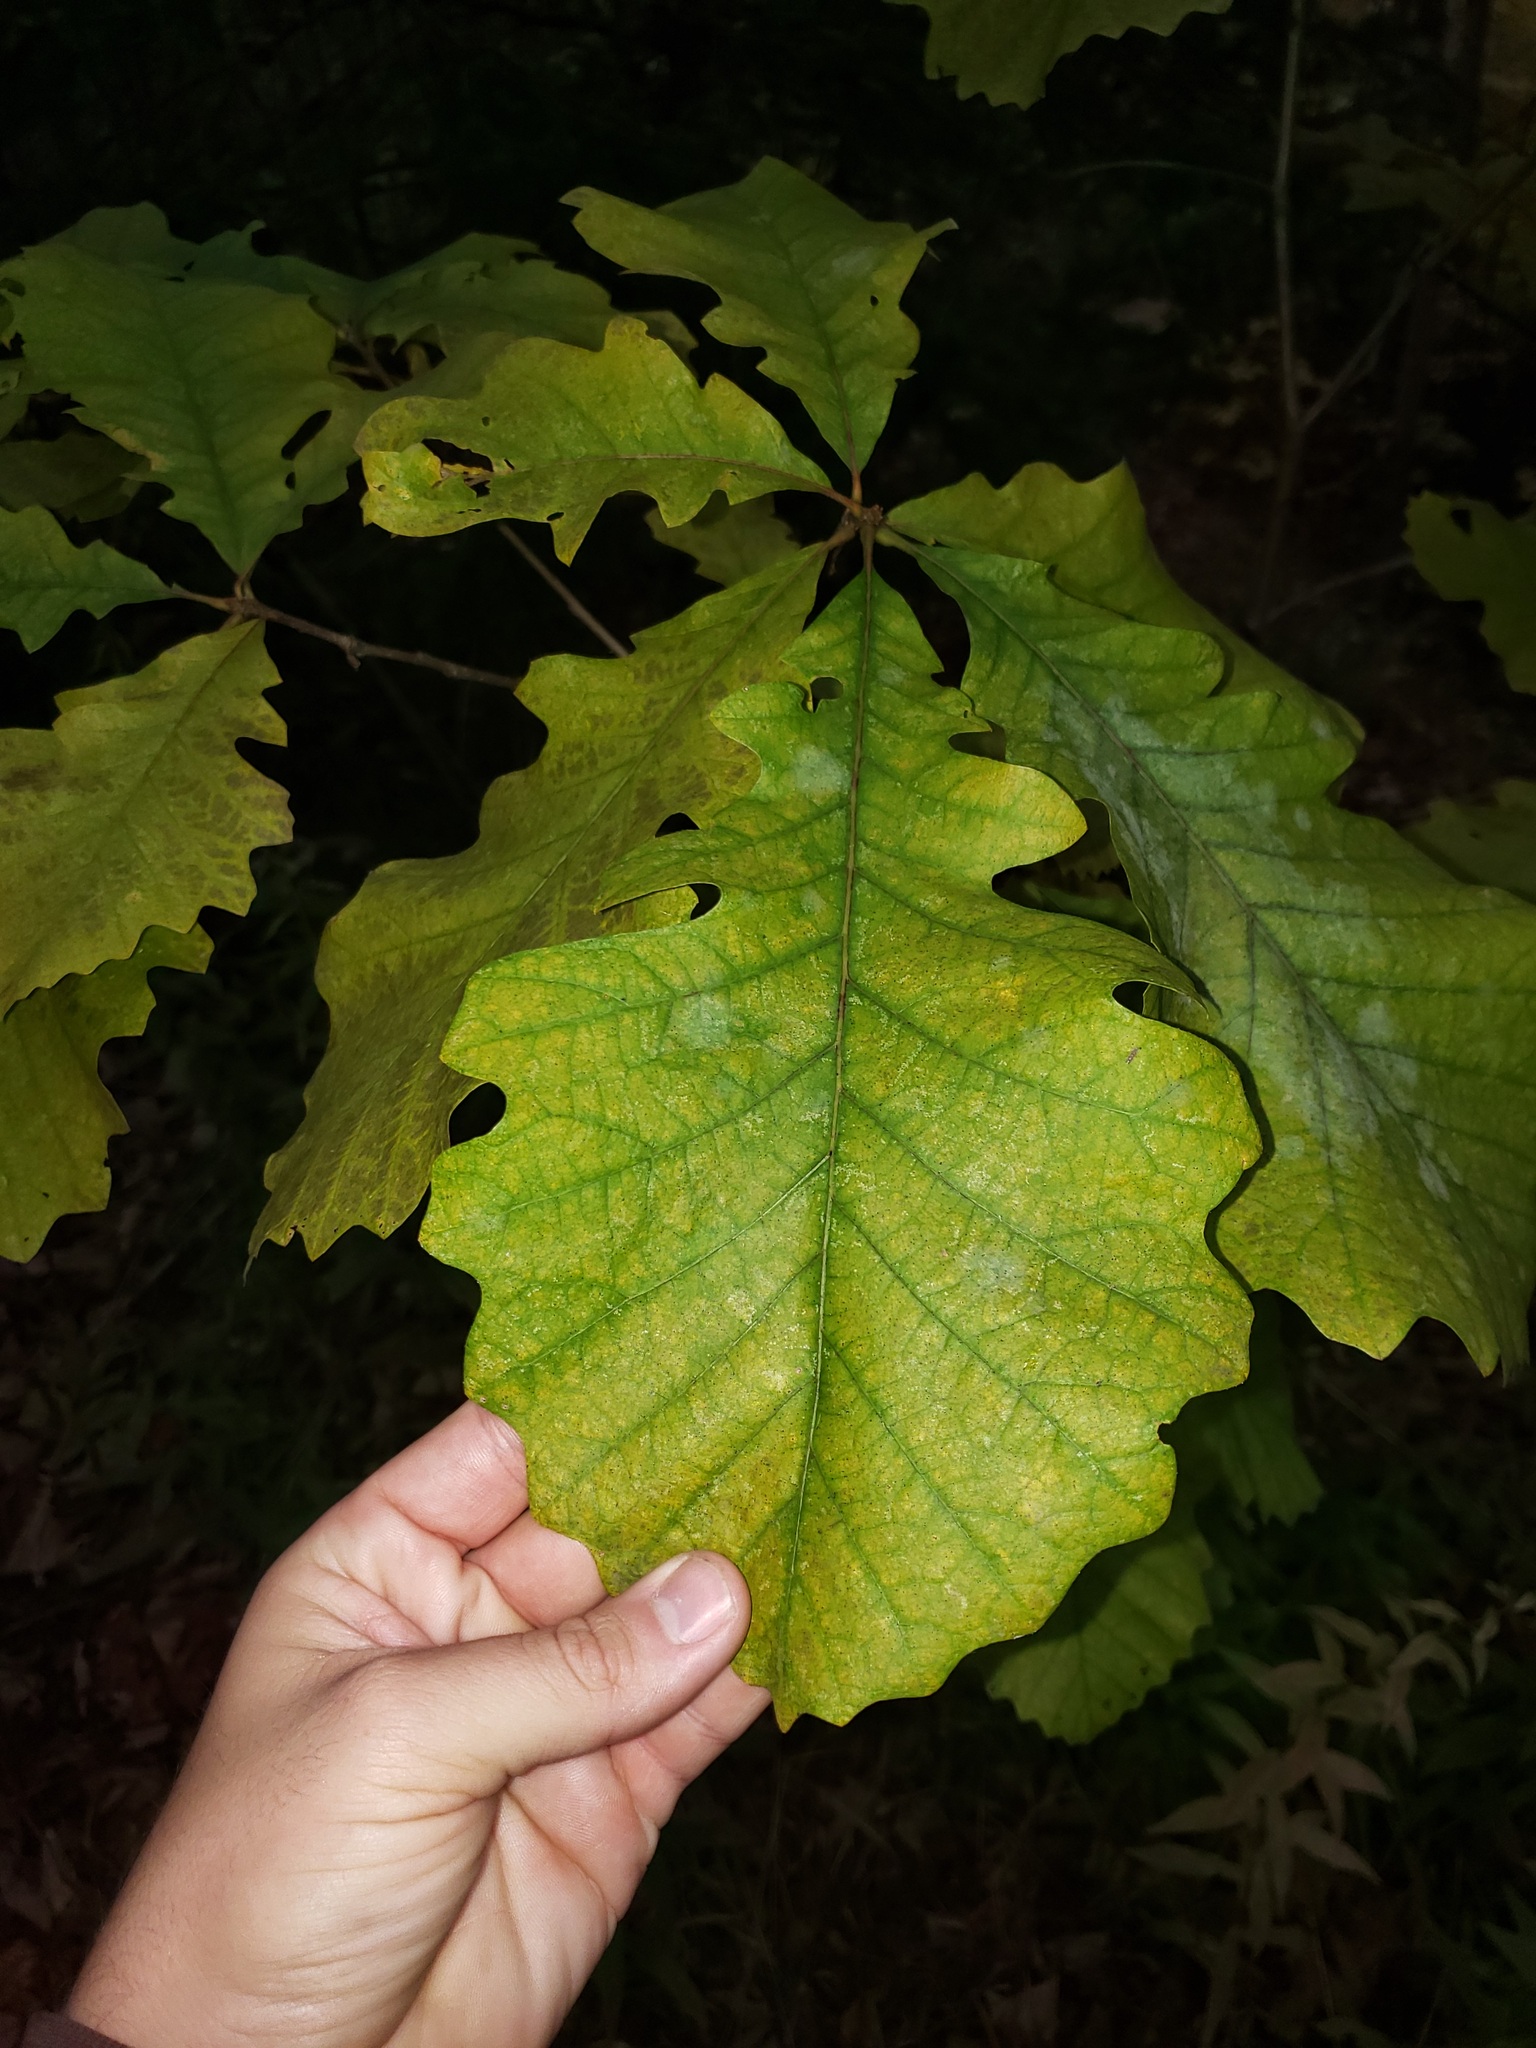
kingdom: Plantae
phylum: Tracheophyta
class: Magnoliopsida
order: Fagales
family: Fagaceae
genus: Quercus
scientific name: Quercus macrocarpa
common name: Bur oak
